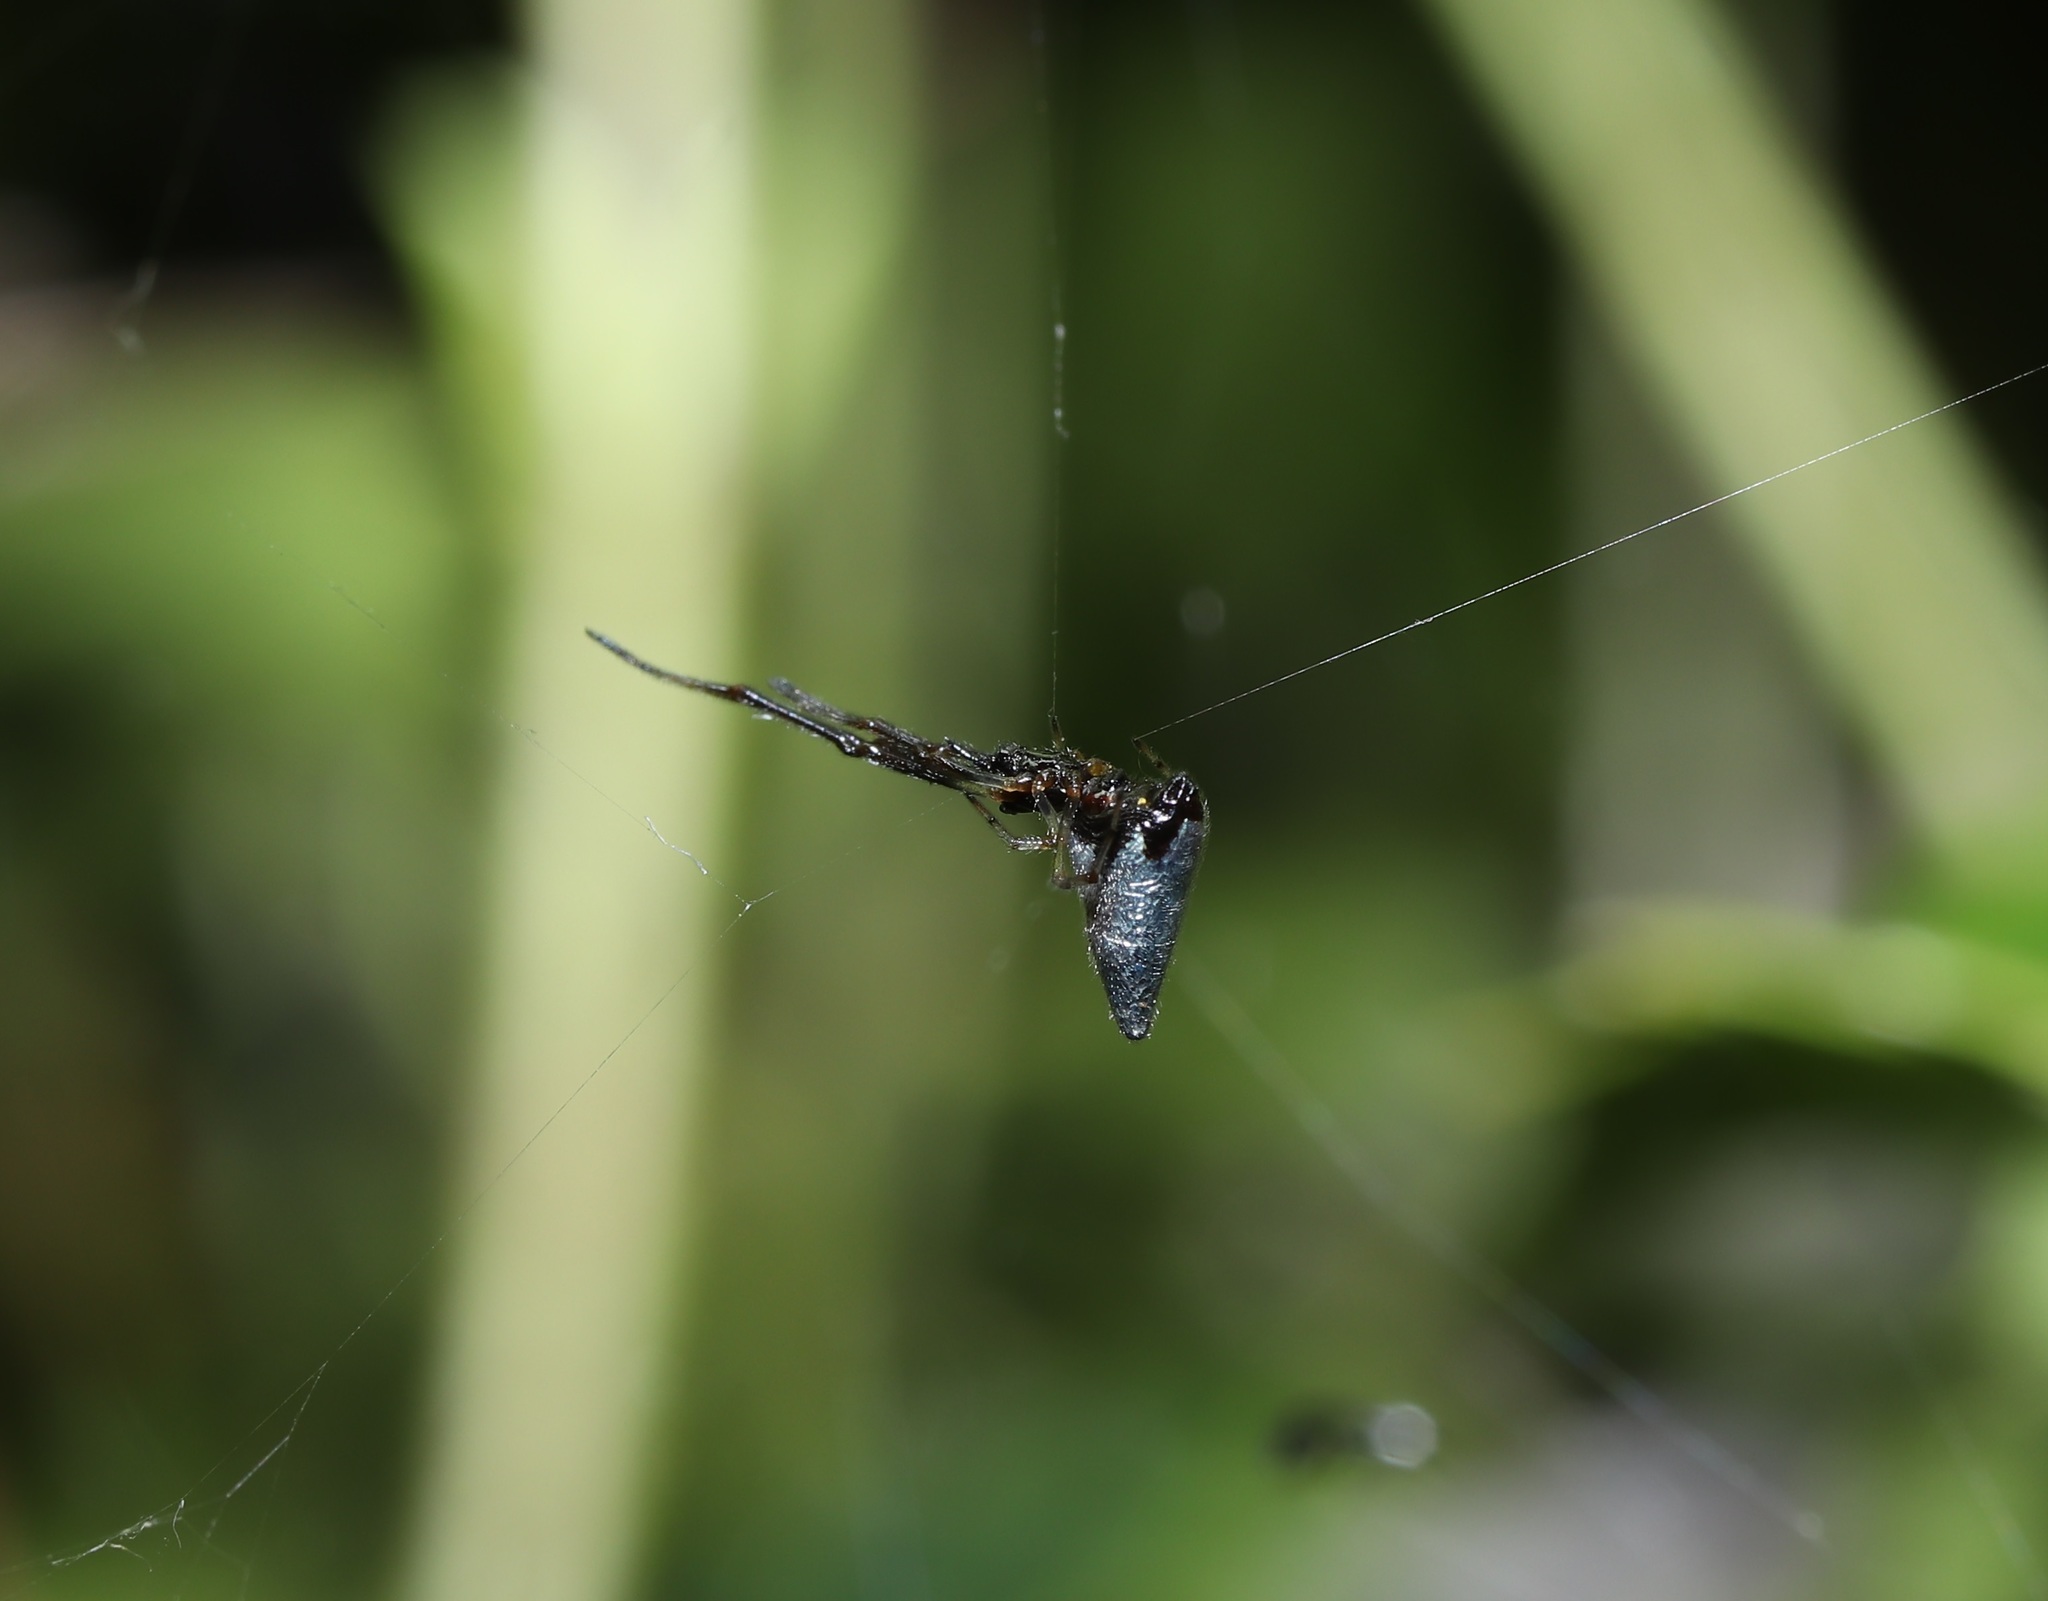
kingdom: Animalia
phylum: Arthropoda
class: Arachnida
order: Araneae
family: Theridiidae
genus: Argyrodes
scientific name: Argyrodes bonadea
